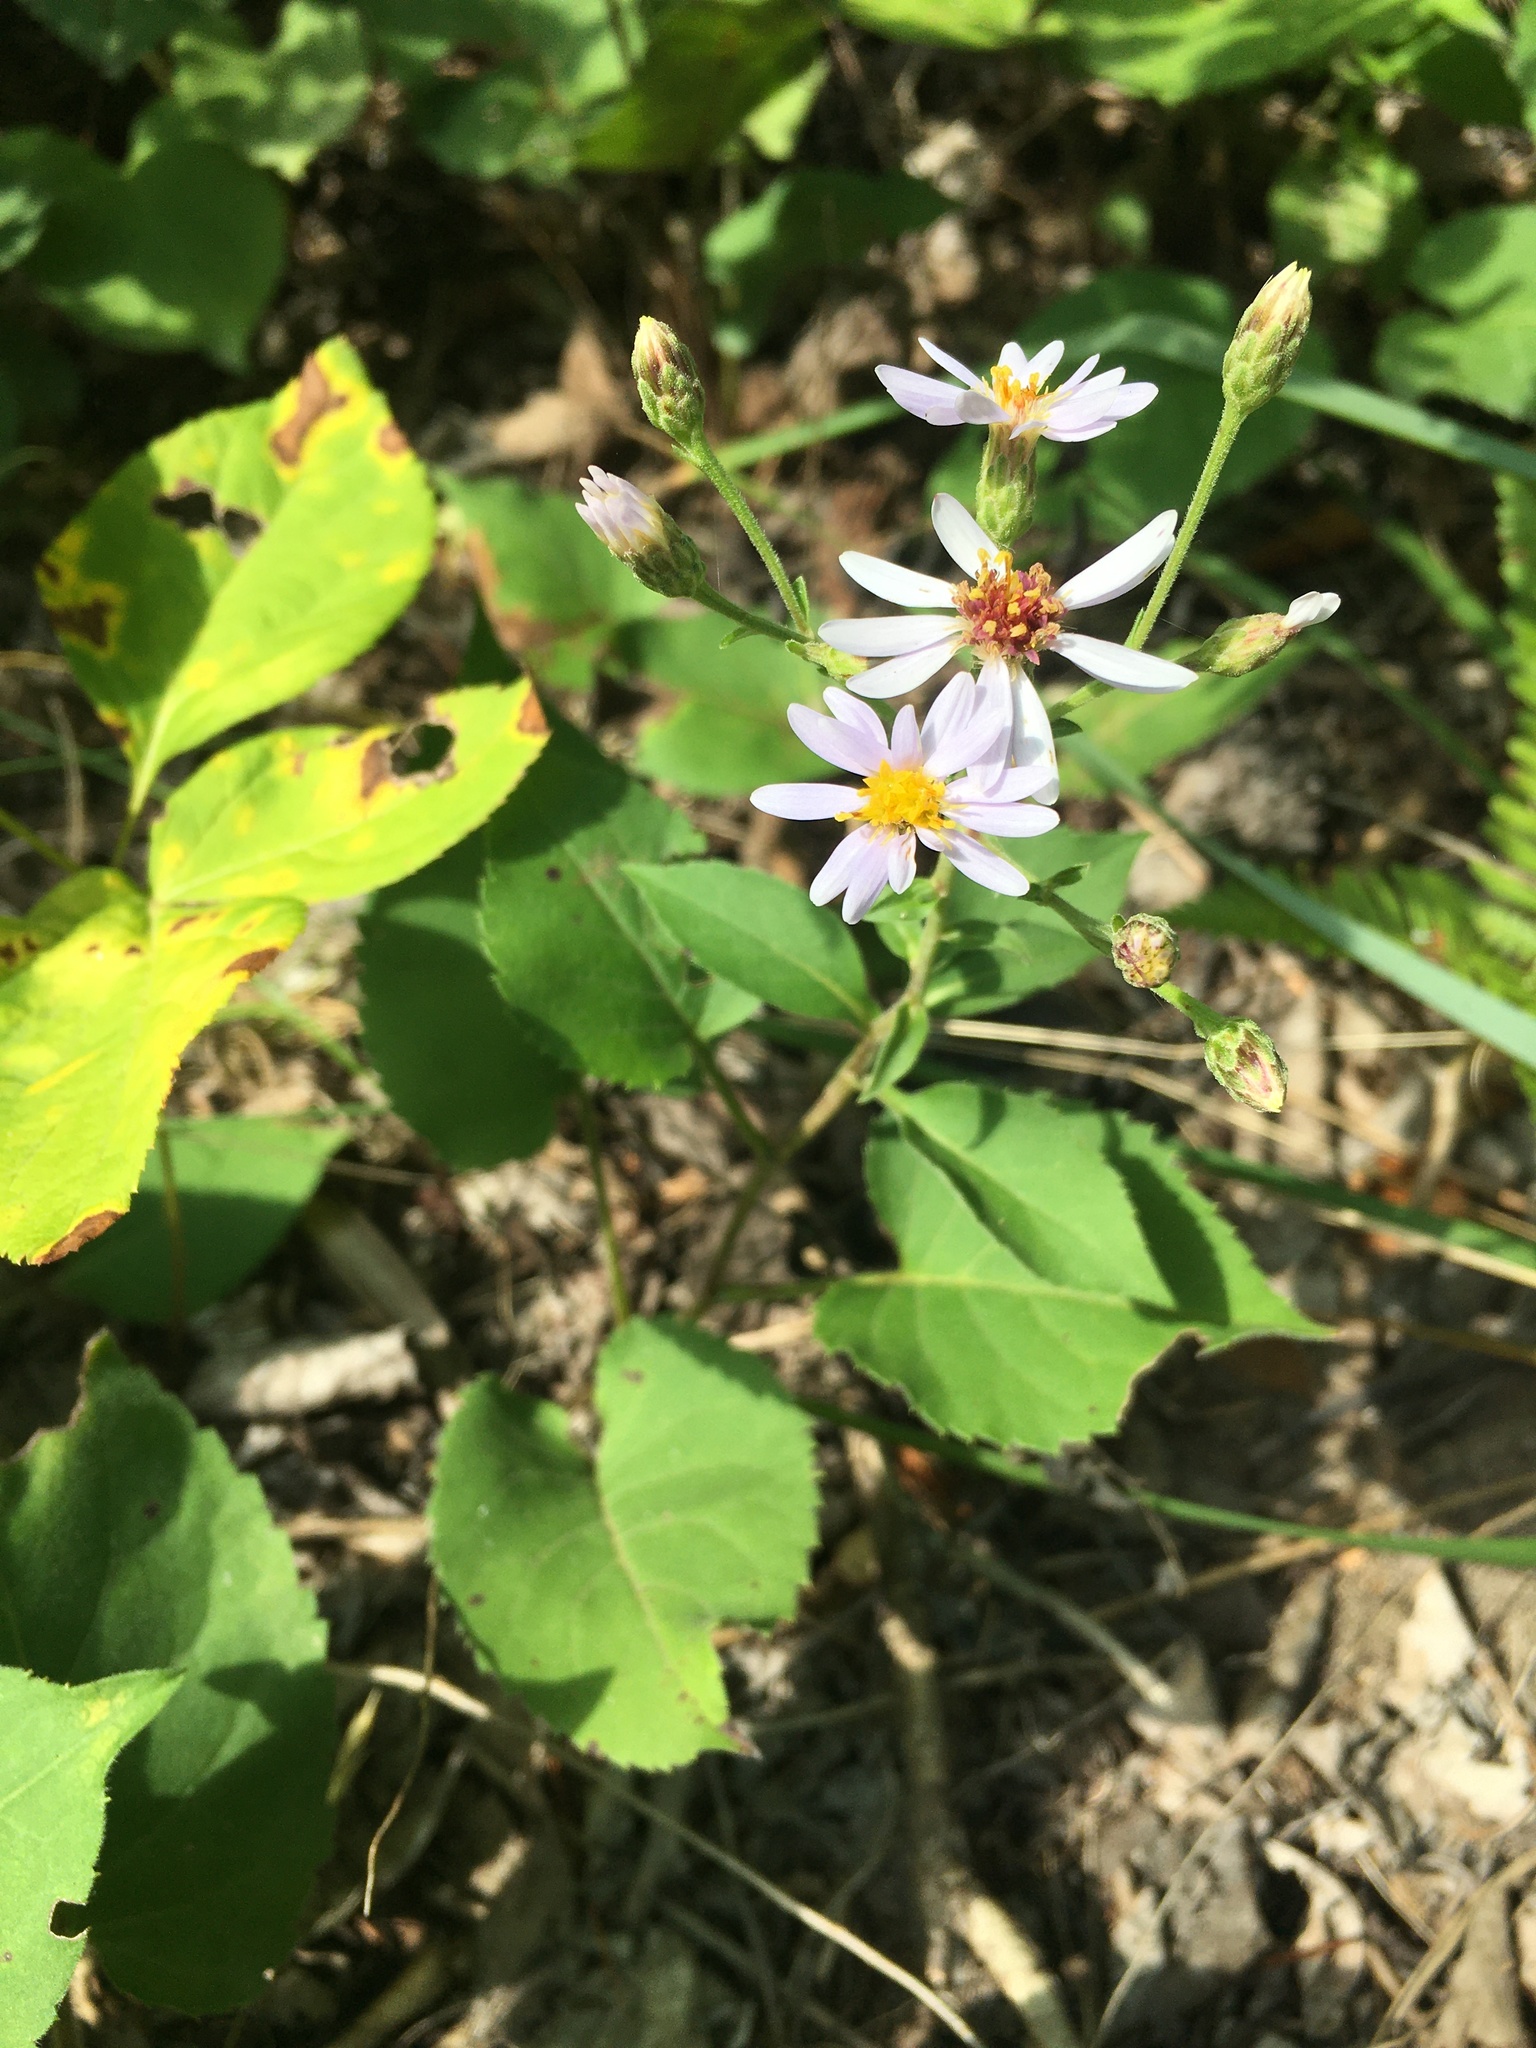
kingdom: Plantae
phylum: Tracheophyta
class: Magnoliopsida
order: Asterales
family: Asteraceae
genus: Eurybia
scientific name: Eurybia macrophylla
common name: Big-leaved aster
